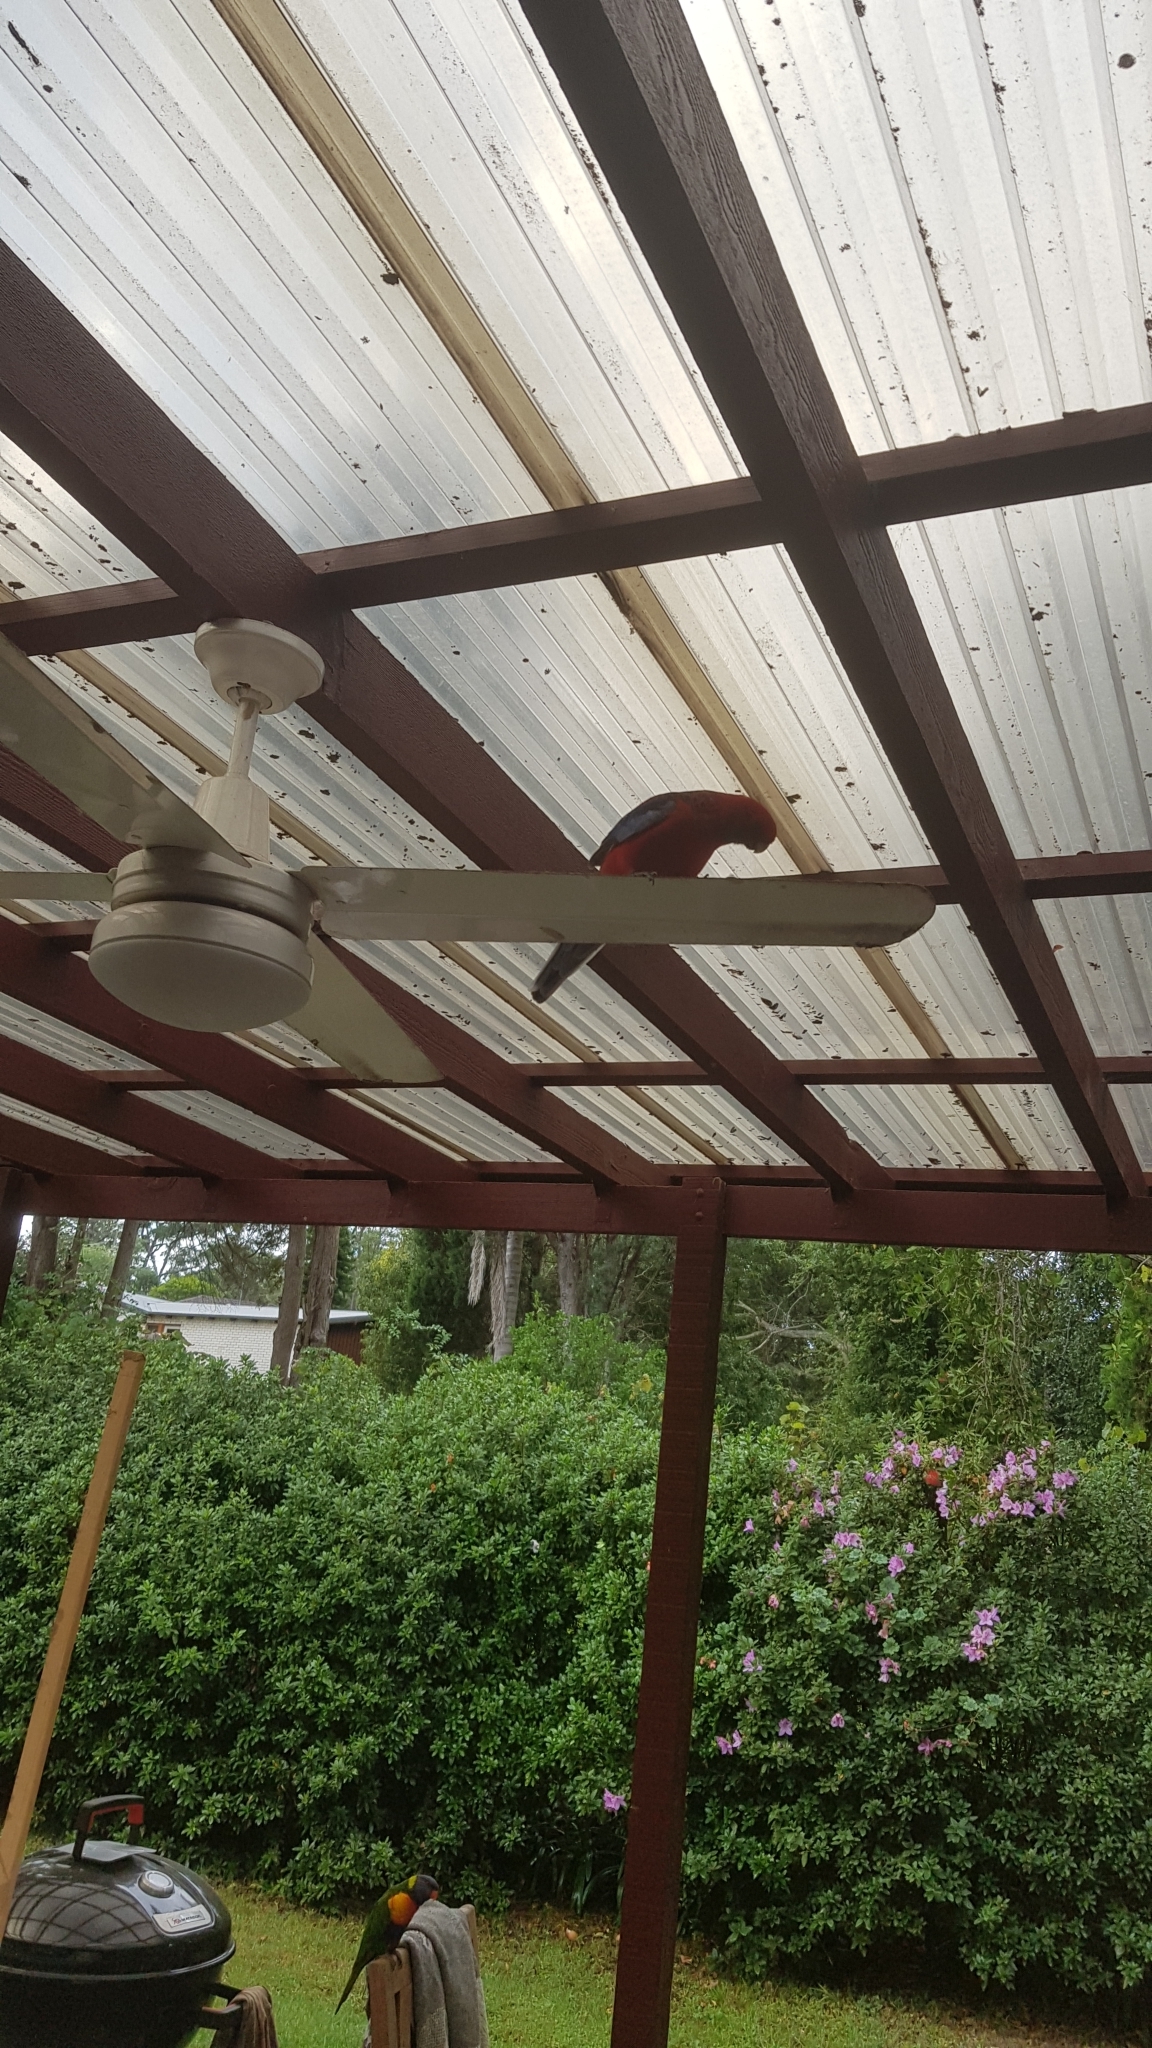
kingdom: Animalia
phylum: Chordata
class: Aves
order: Psittaciformes
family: Psittacidae
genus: Platycercus
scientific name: Platycercus elegans
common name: Crimson rosella
